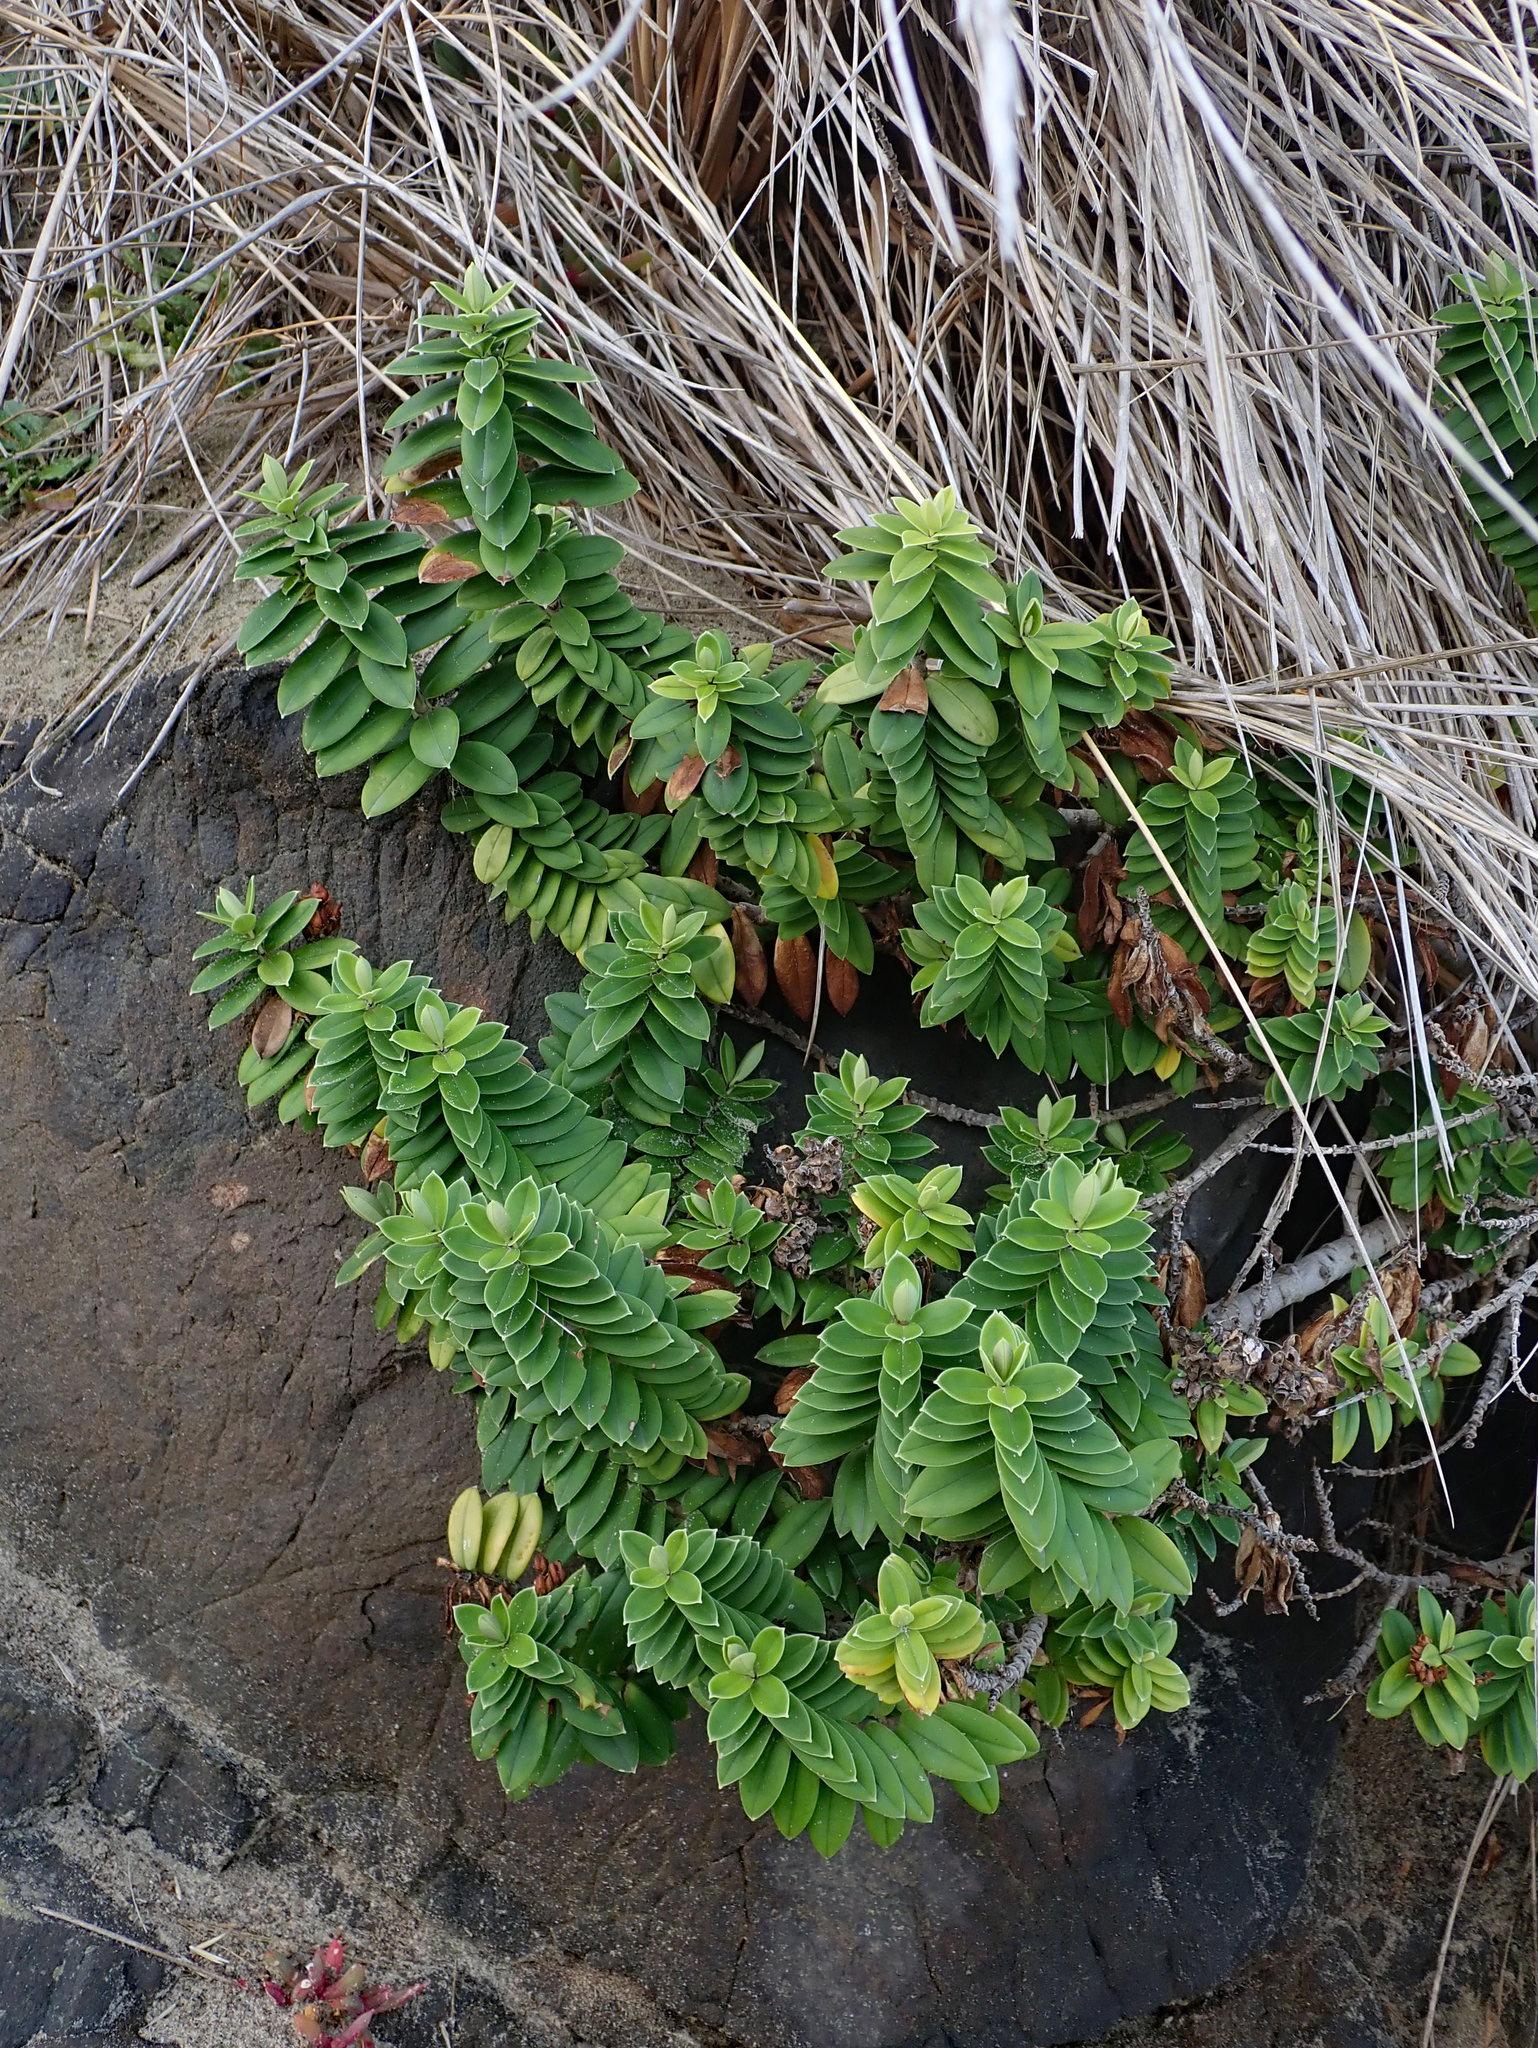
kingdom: Plantae
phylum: Tracheophyta
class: Magnoliopsida
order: Lamiales
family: Plantaginaceae
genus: Veronica
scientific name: Veronica elliptica
